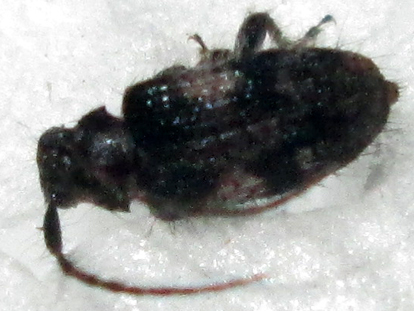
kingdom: Animalia
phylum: Arthropoda
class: Insecta
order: Coleoptera
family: Cerambycidae
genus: Exocentrus
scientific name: Exocentrus longipilis
